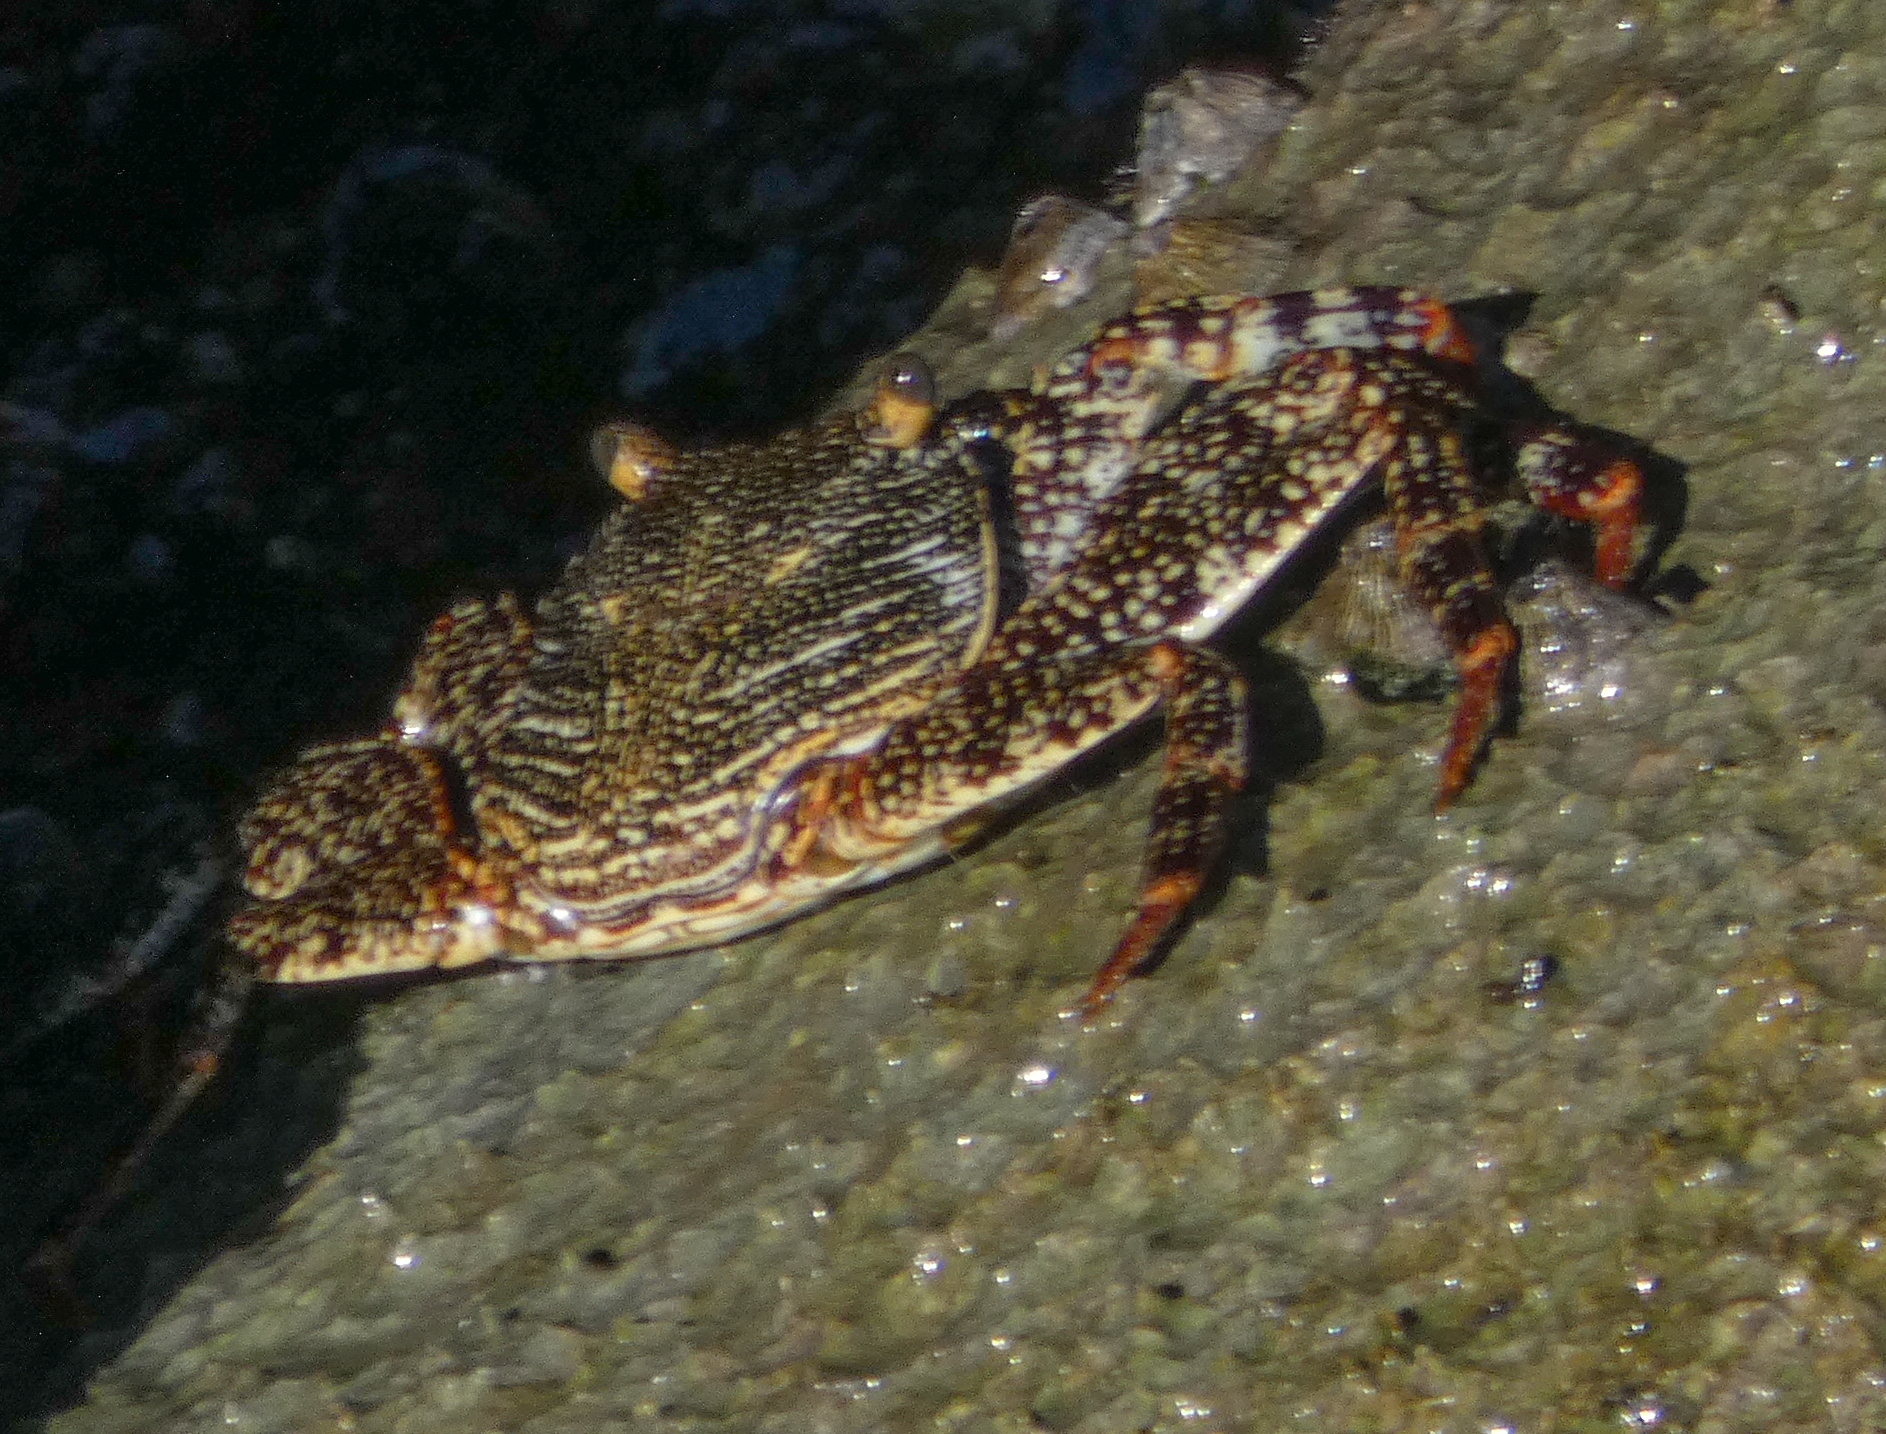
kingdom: Animalia
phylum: Arthropoda
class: Malacostraca
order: Decapoda
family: Grapsidae
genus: Grapsus
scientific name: Grapsus grapsus
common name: Sally lightfoot
